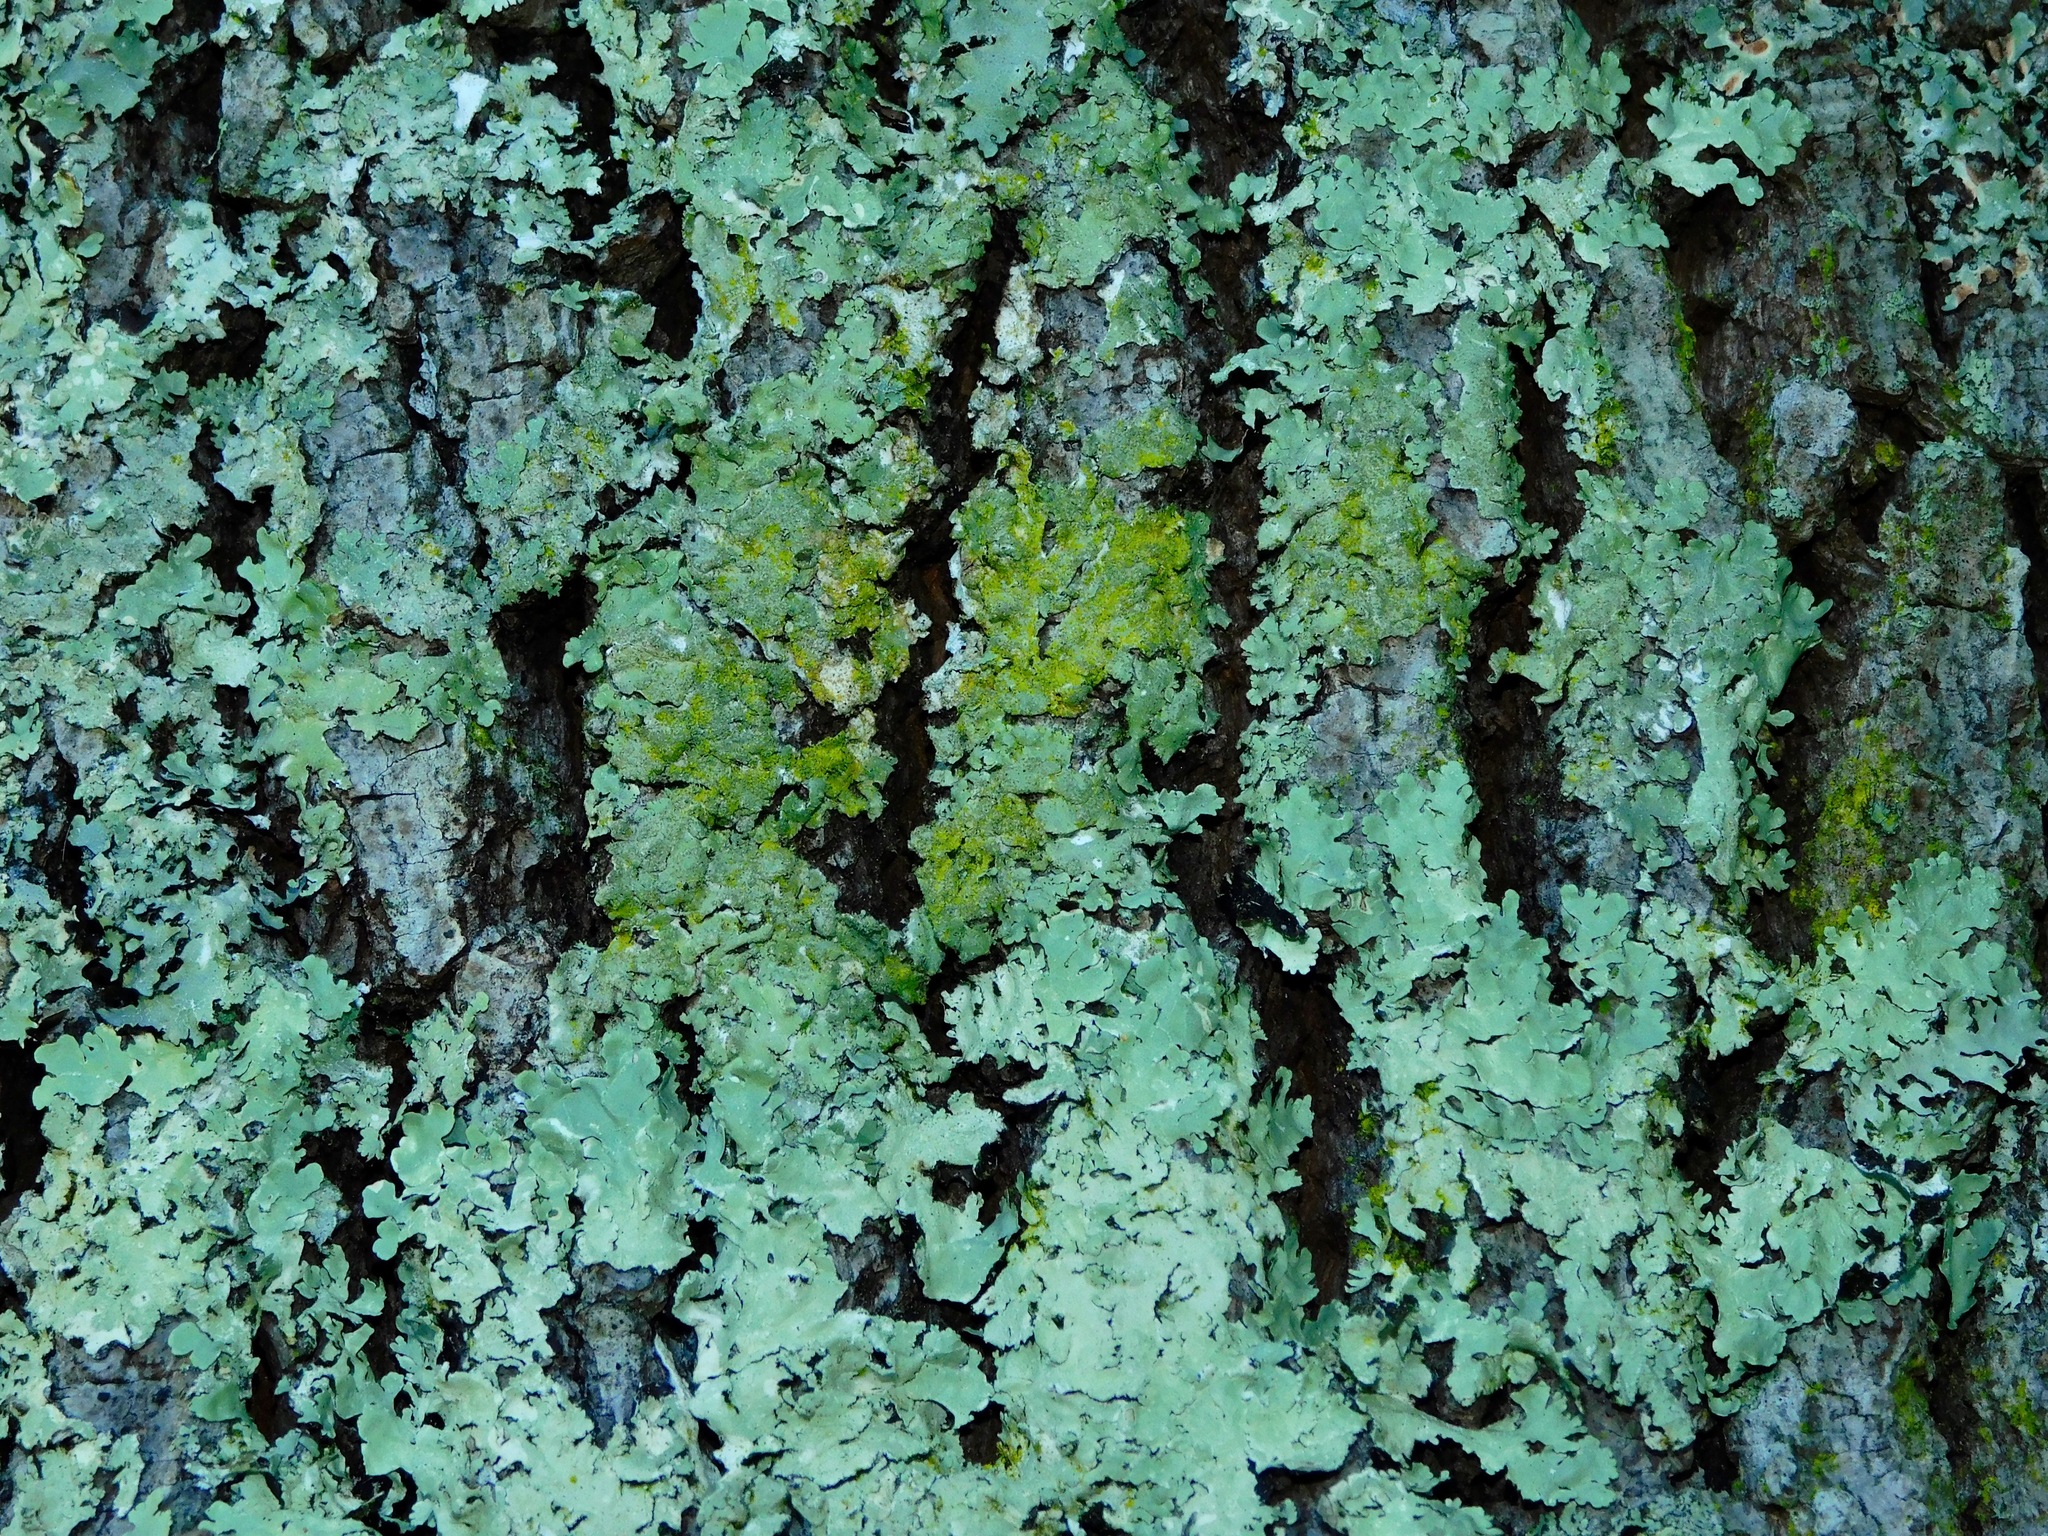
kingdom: Fungi
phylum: Ascomycota
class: Lecanoromycetes
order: Lecanorales
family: Parmeliaceae
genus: Flavoparmelia
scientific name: Flavoparmelia caperata
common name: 40-mile per hour lichen
